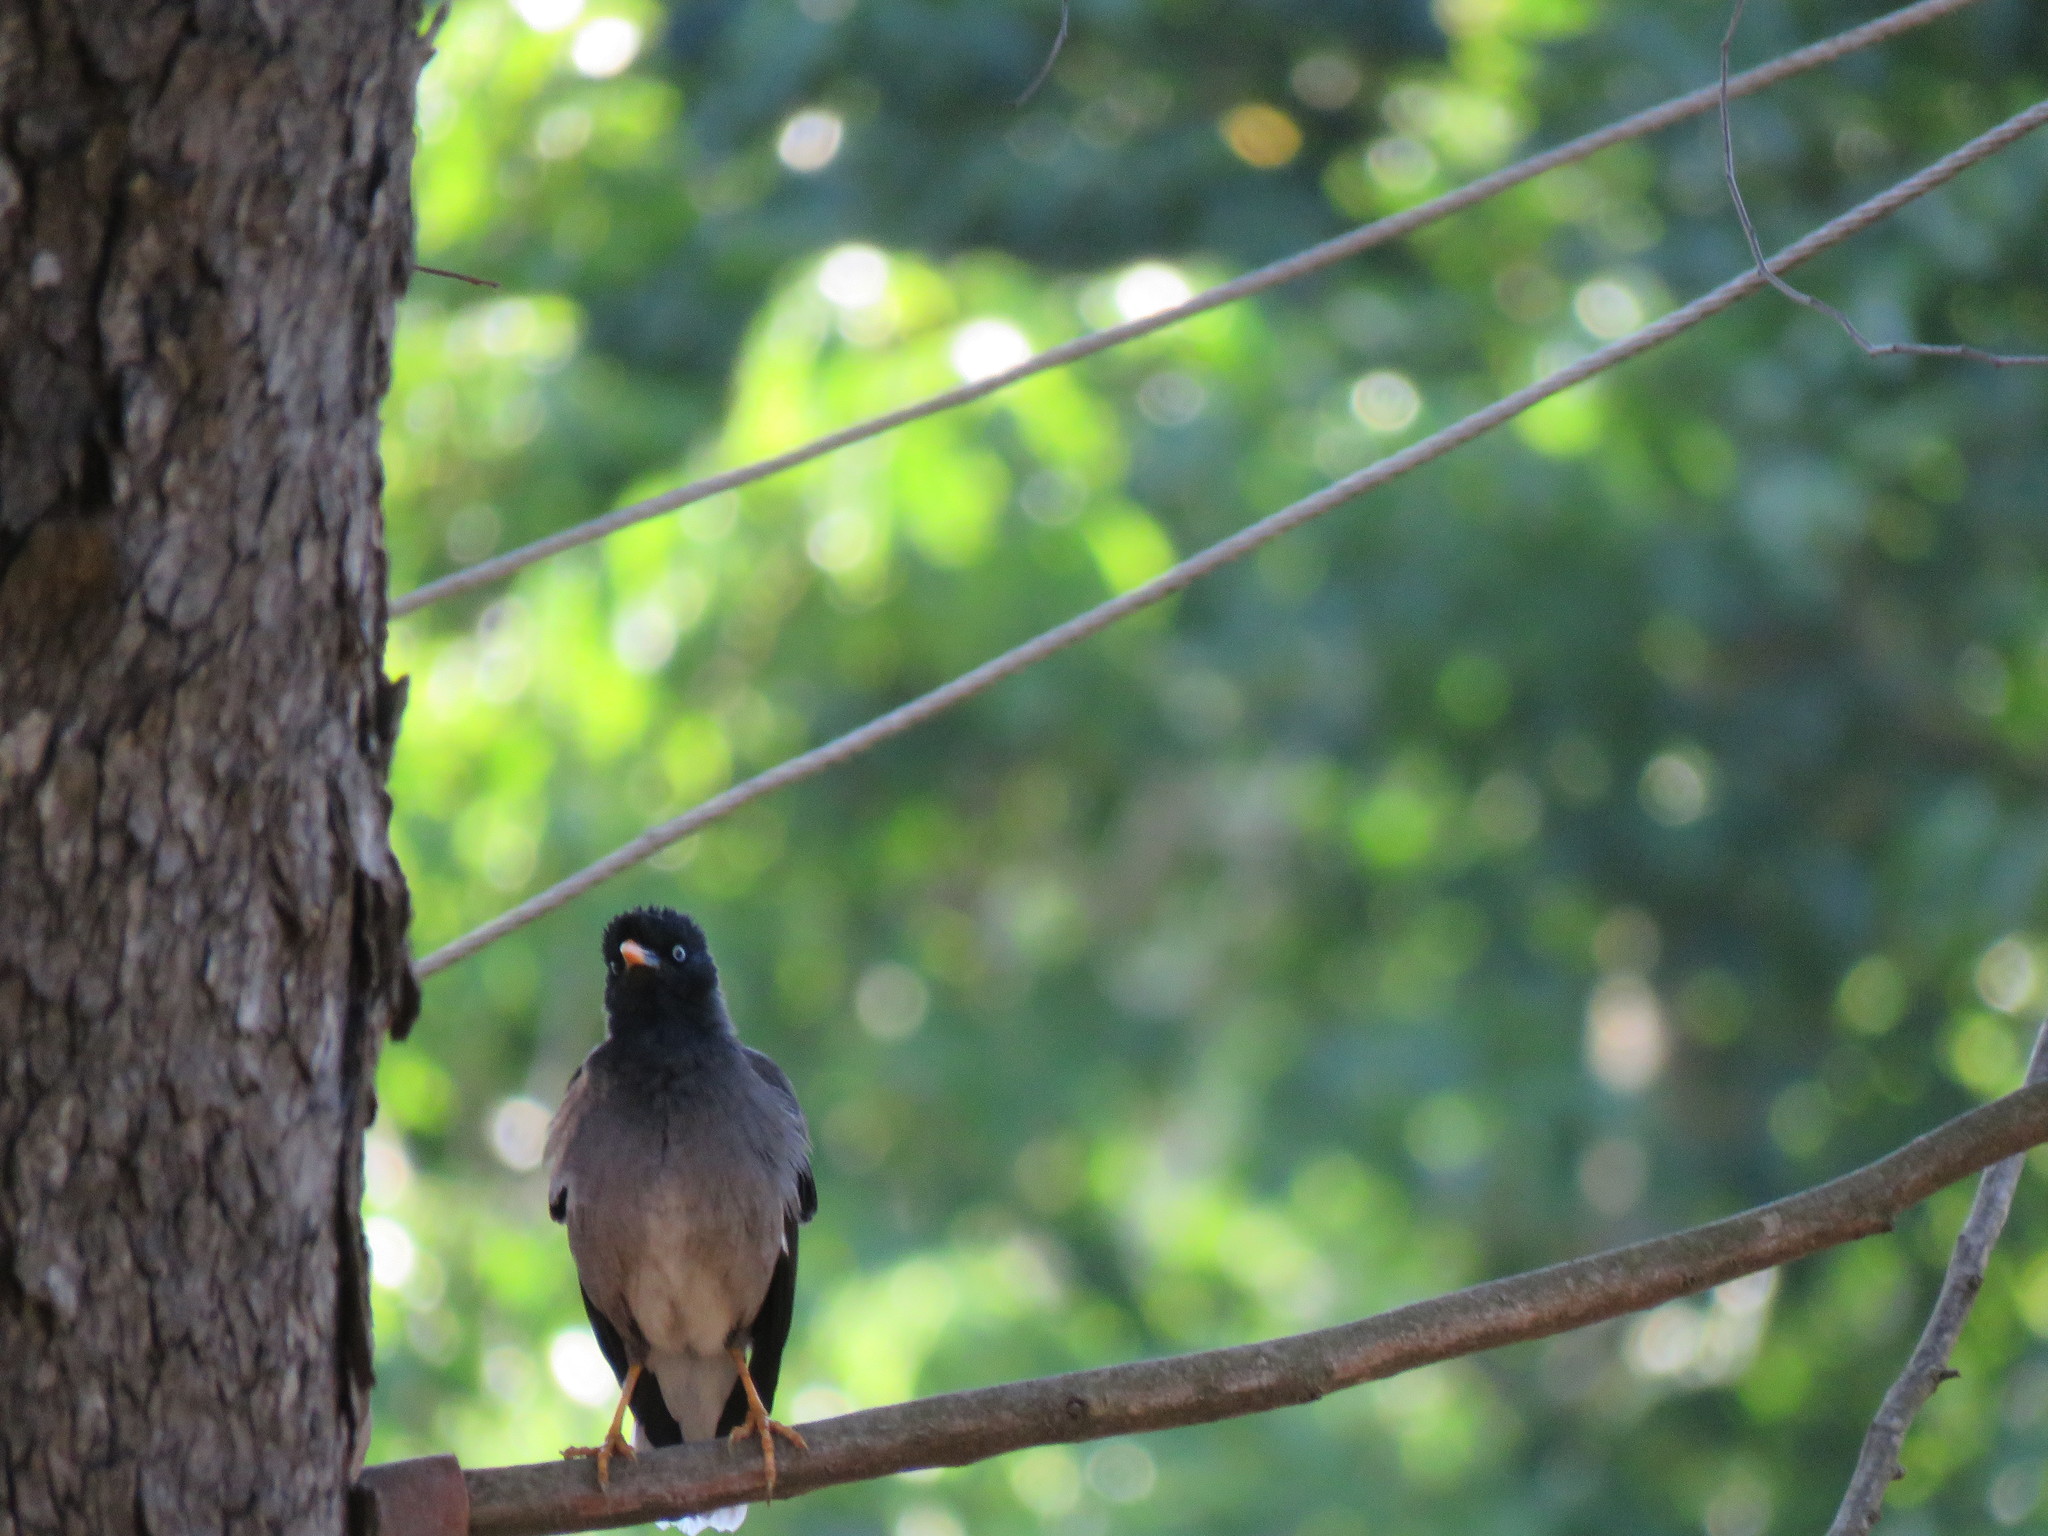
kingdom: Animalia
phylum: Chordata
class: Aves
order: Passeriformes
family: Sturnidae
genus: Acridotheres
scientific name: Acridotheres fuscus
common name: Jungle myna
